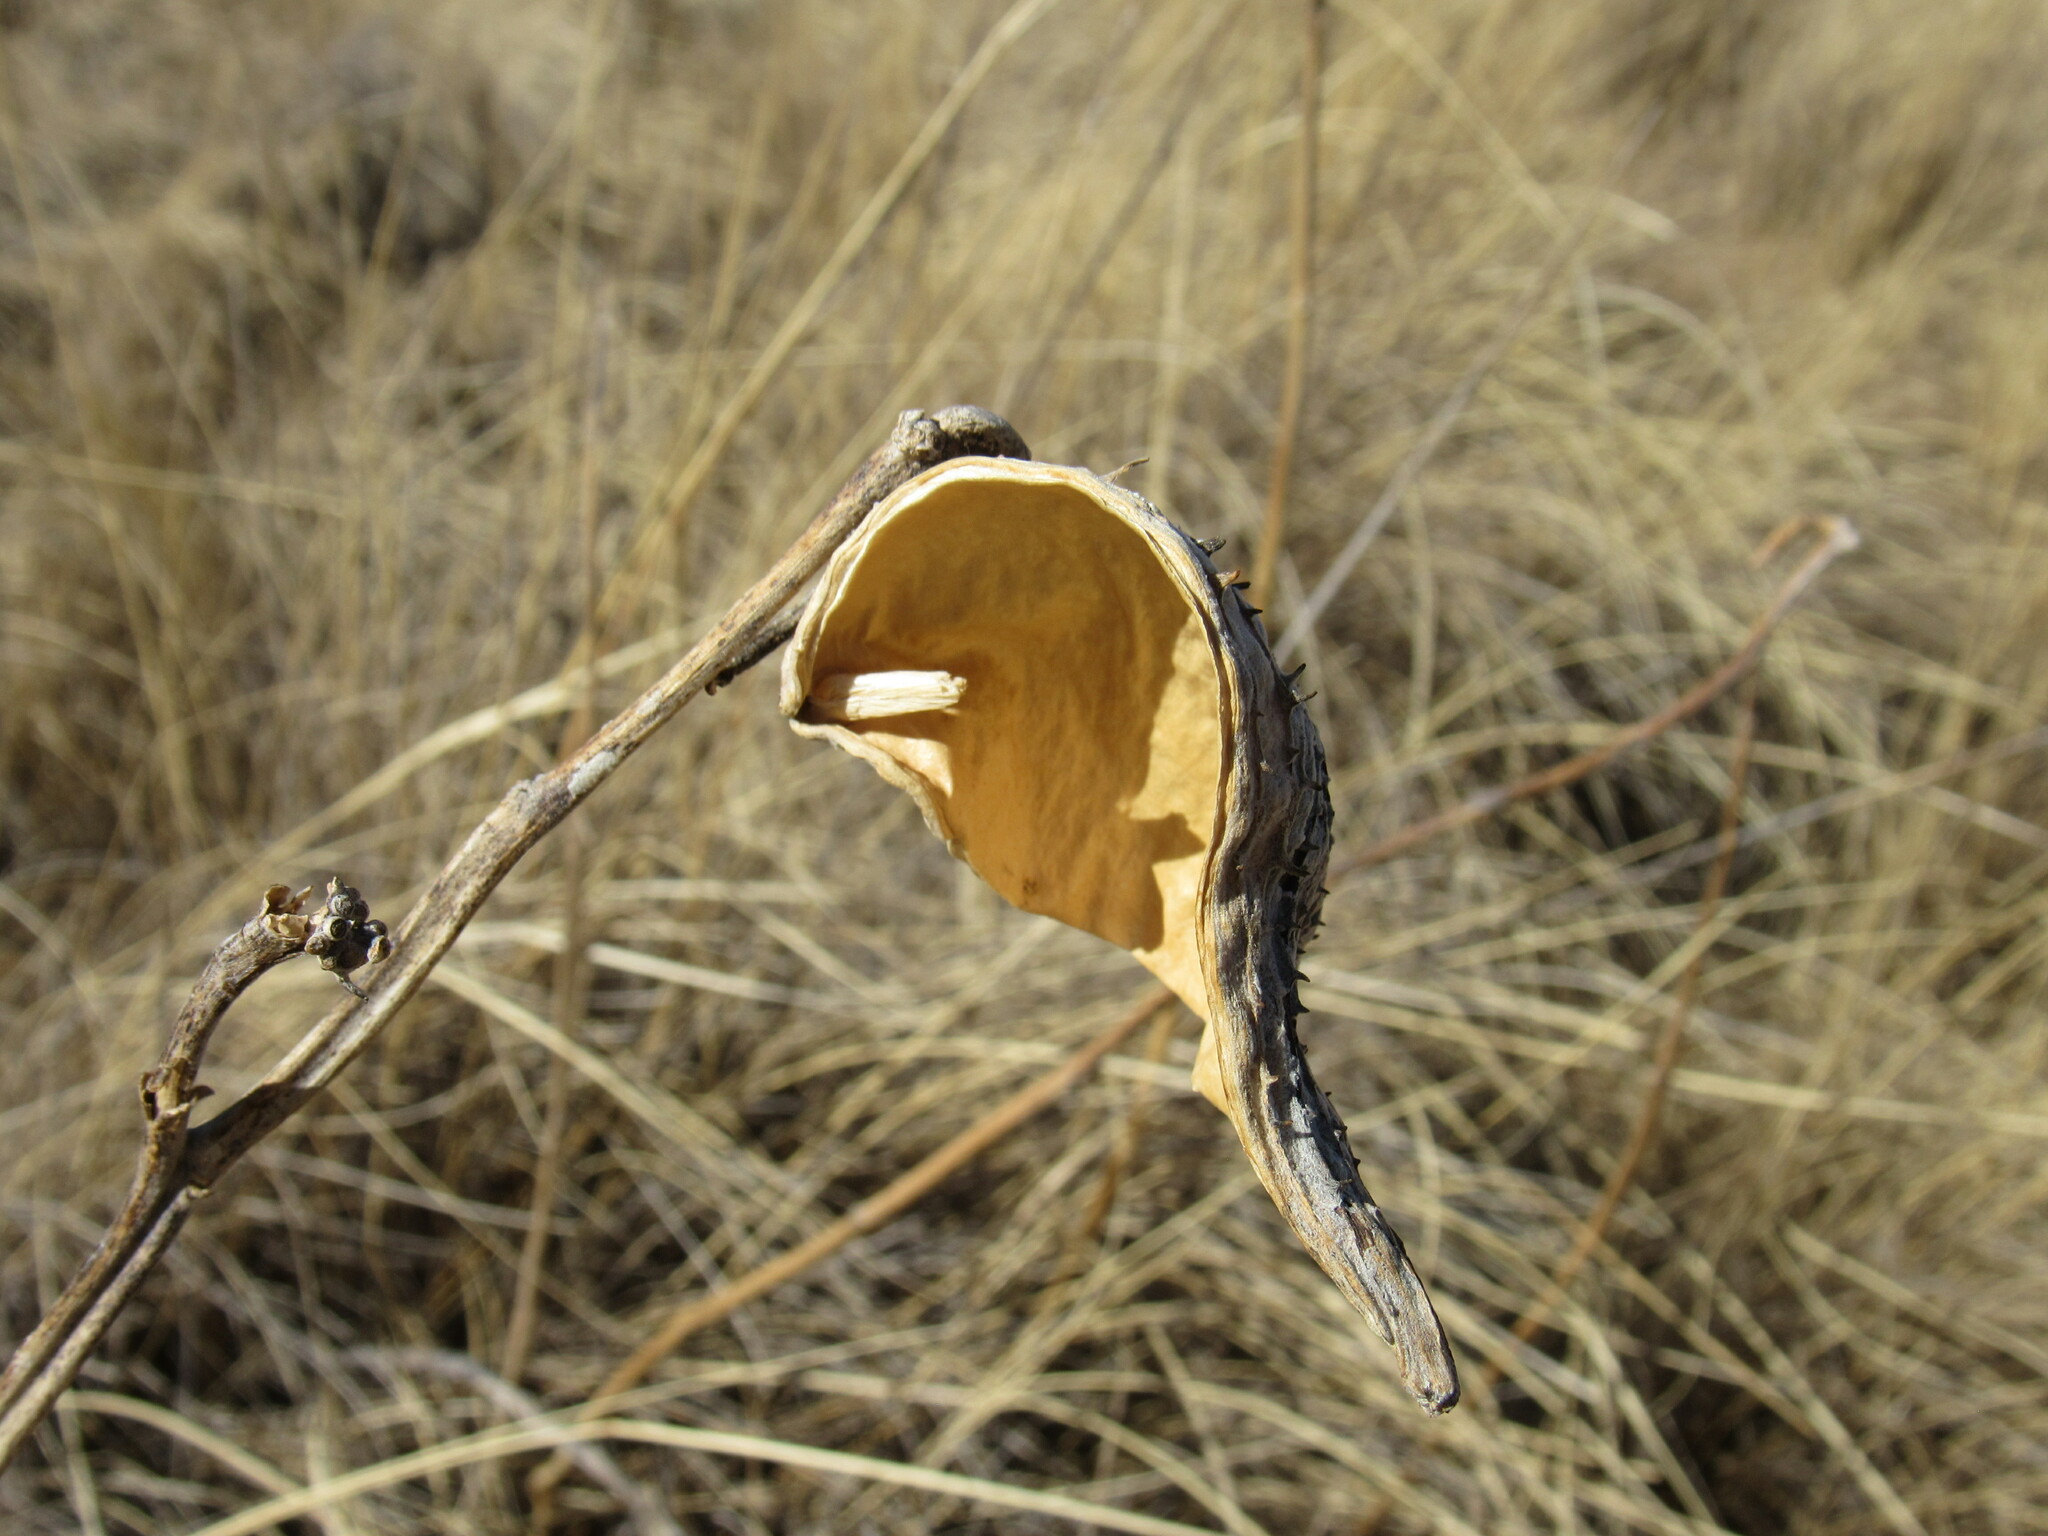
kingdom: Plantae
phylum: Tracheophyta
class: Magnoliopsida
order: Gentianales
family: Apocynaceae
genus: Asclepias
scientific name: Asclepias speciosa
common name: Showy milkweed
